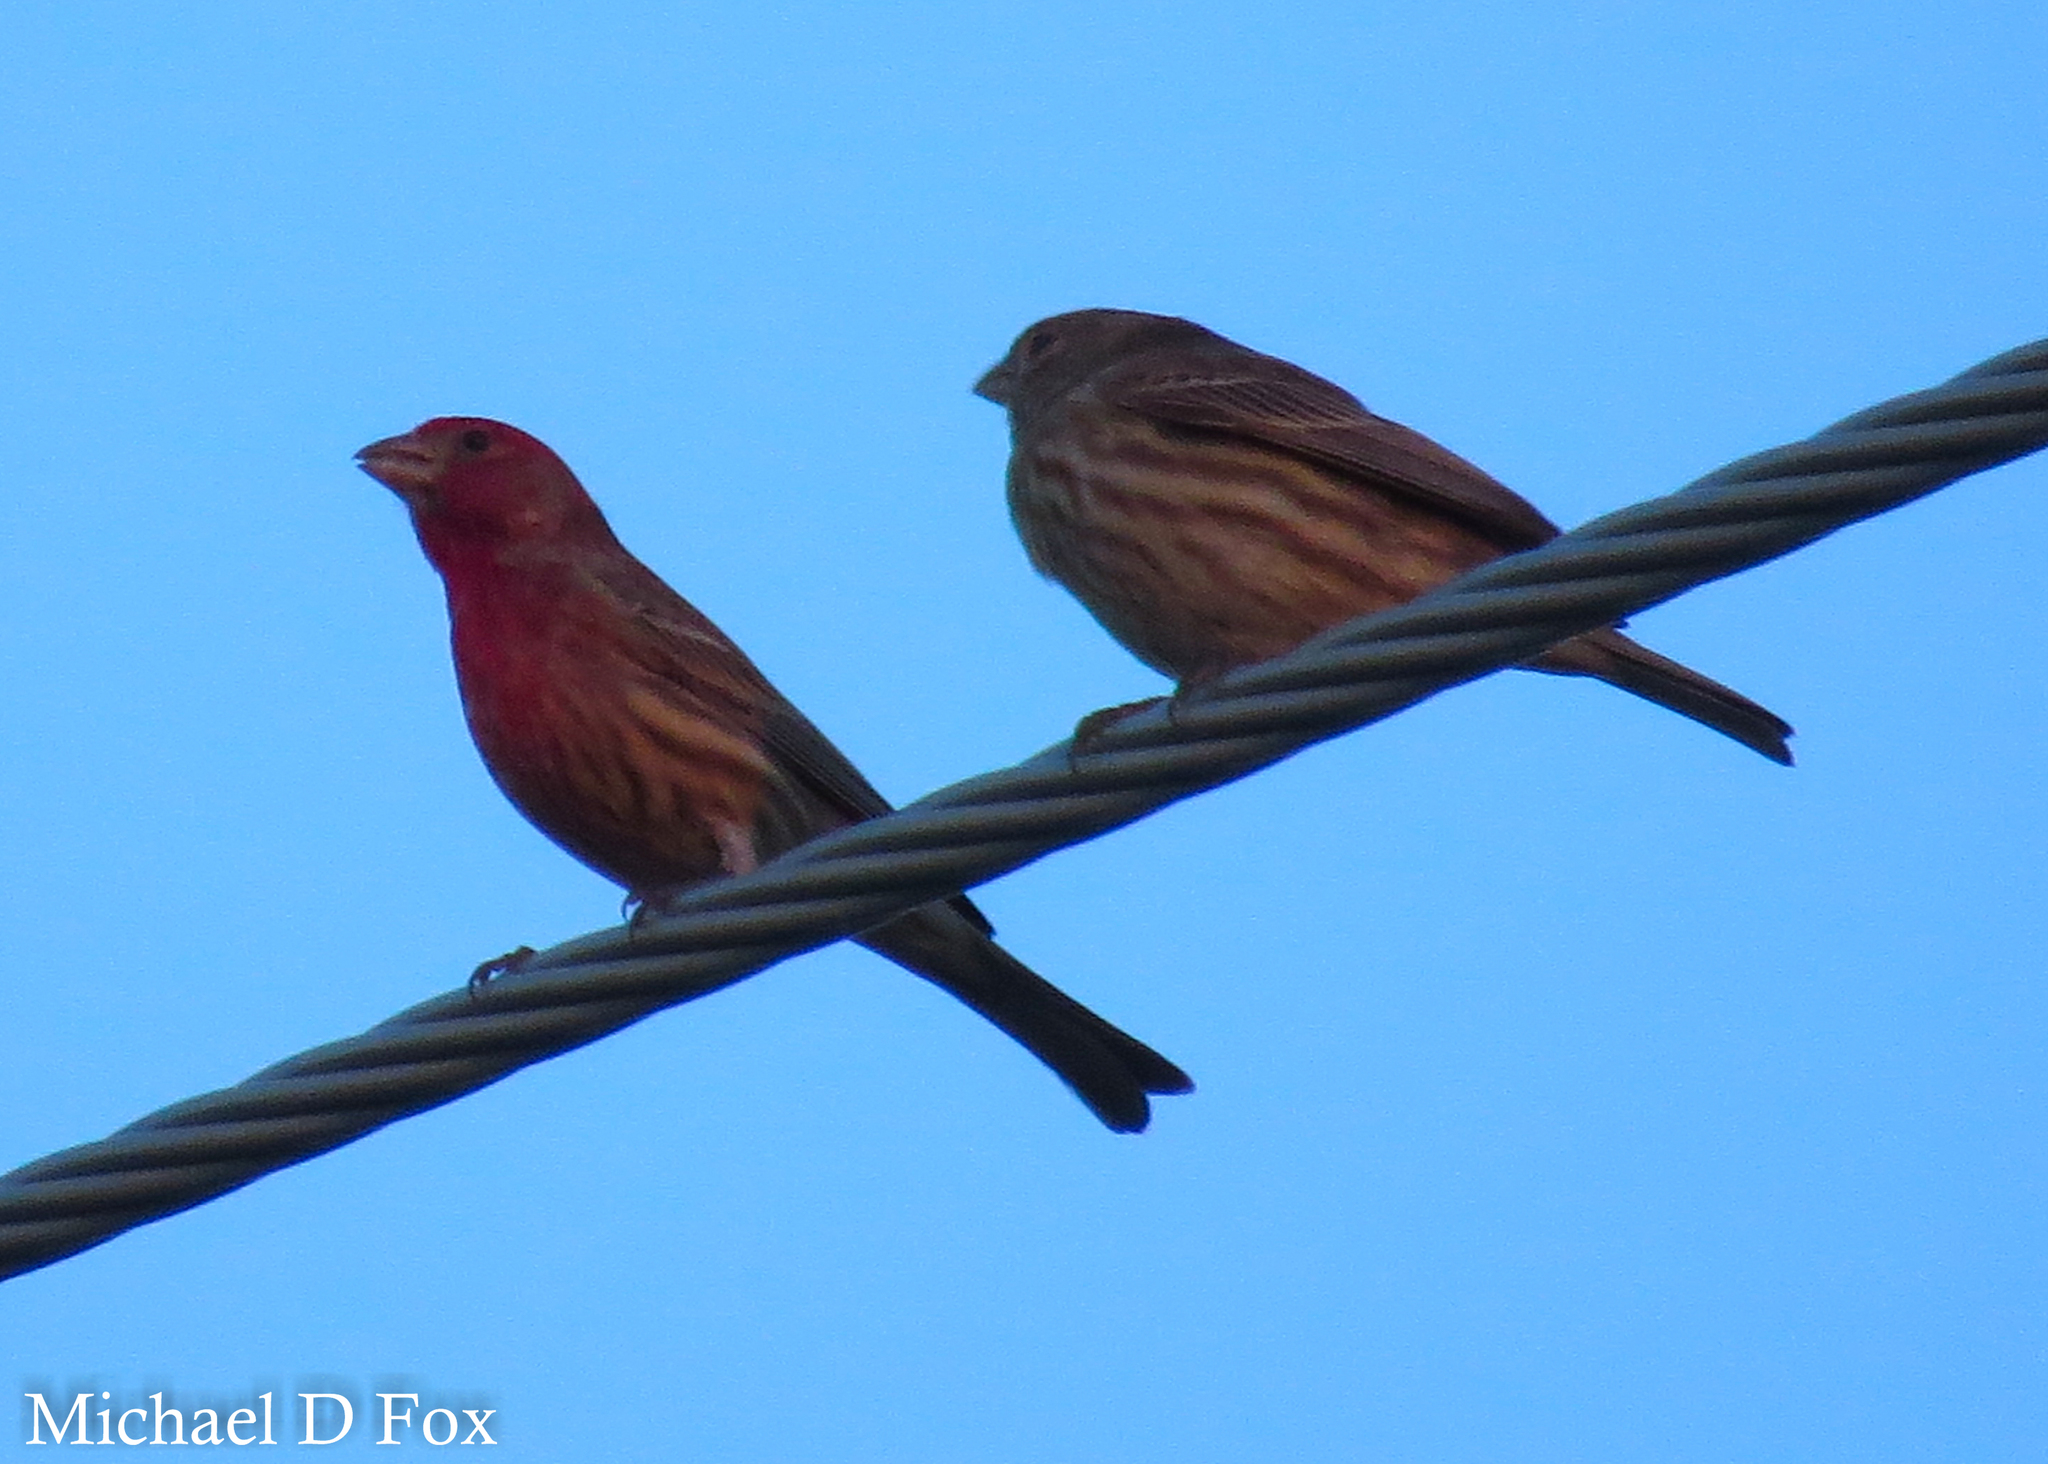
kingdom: Animalia
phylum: Chordata
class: Aves
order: Passeriformes
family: Fringillidae
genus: Haemorhous
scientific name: Haemorhous mexicanus
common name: House finch
